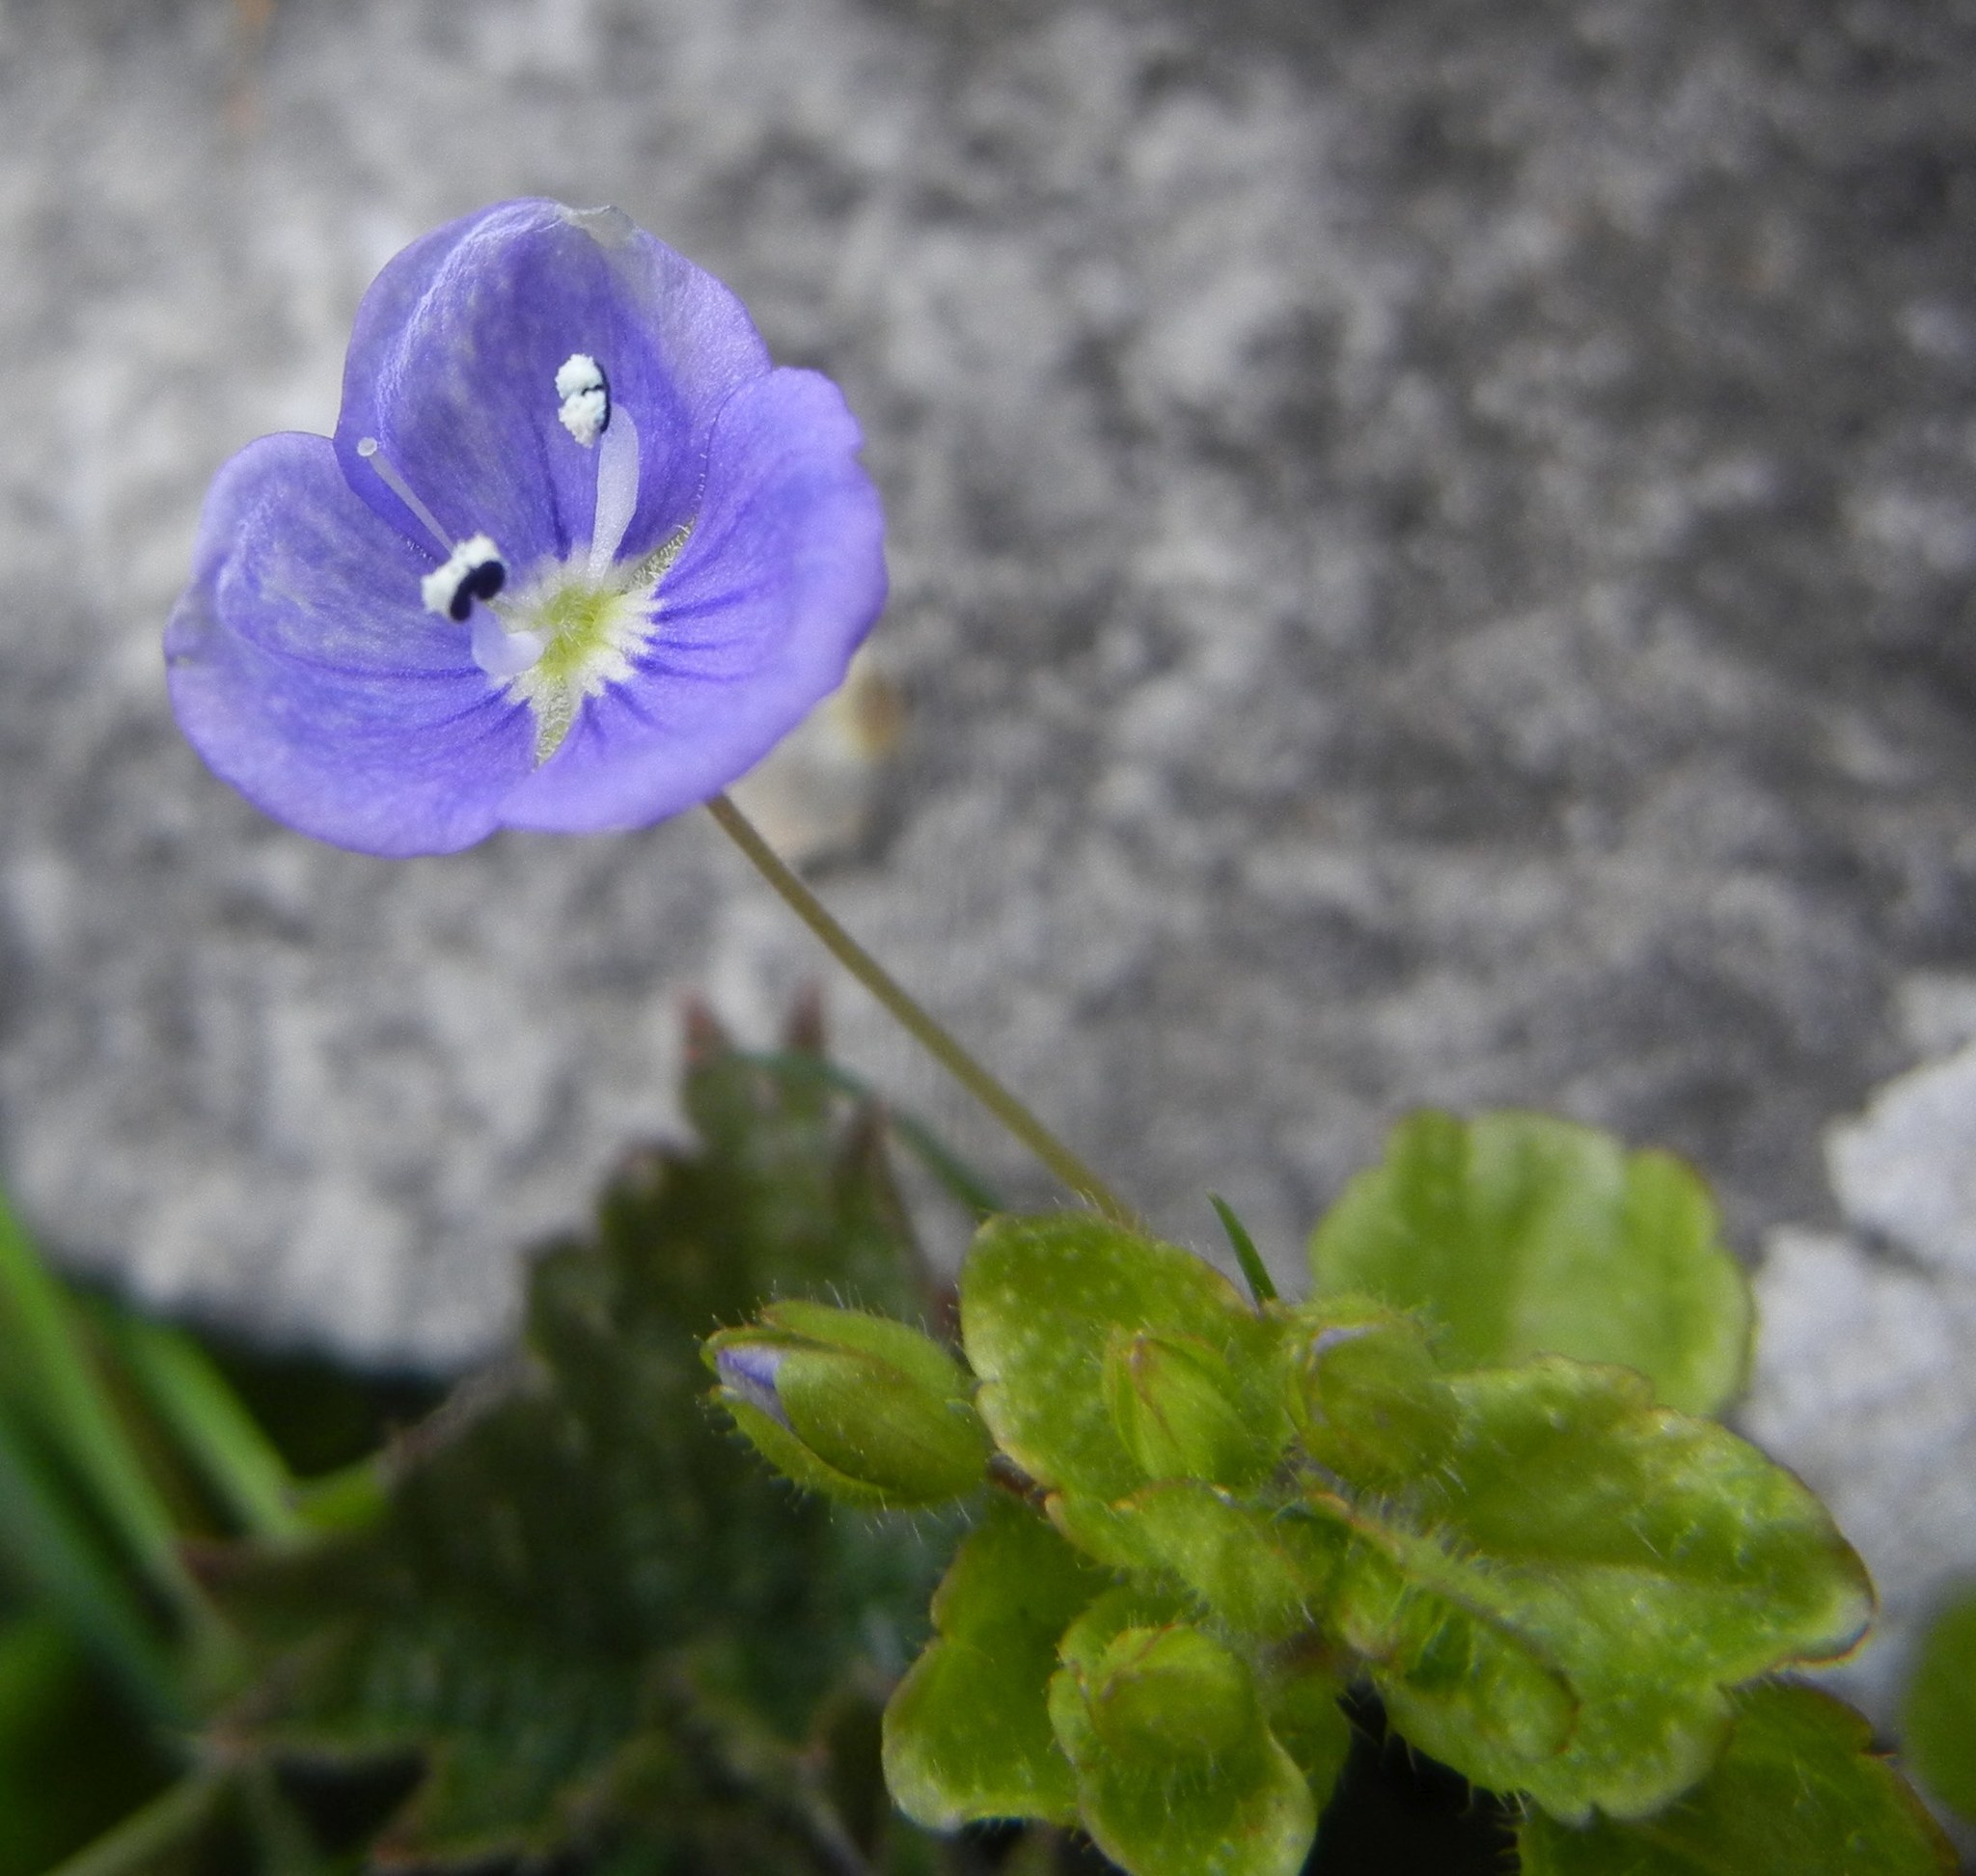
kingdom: Plantae
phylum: Tracheophyta
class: Magnoliopsida
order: Lamiales
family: Plantaginaceae
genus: Veronica
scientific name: Veronica filiformis
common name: Slender speedwell
